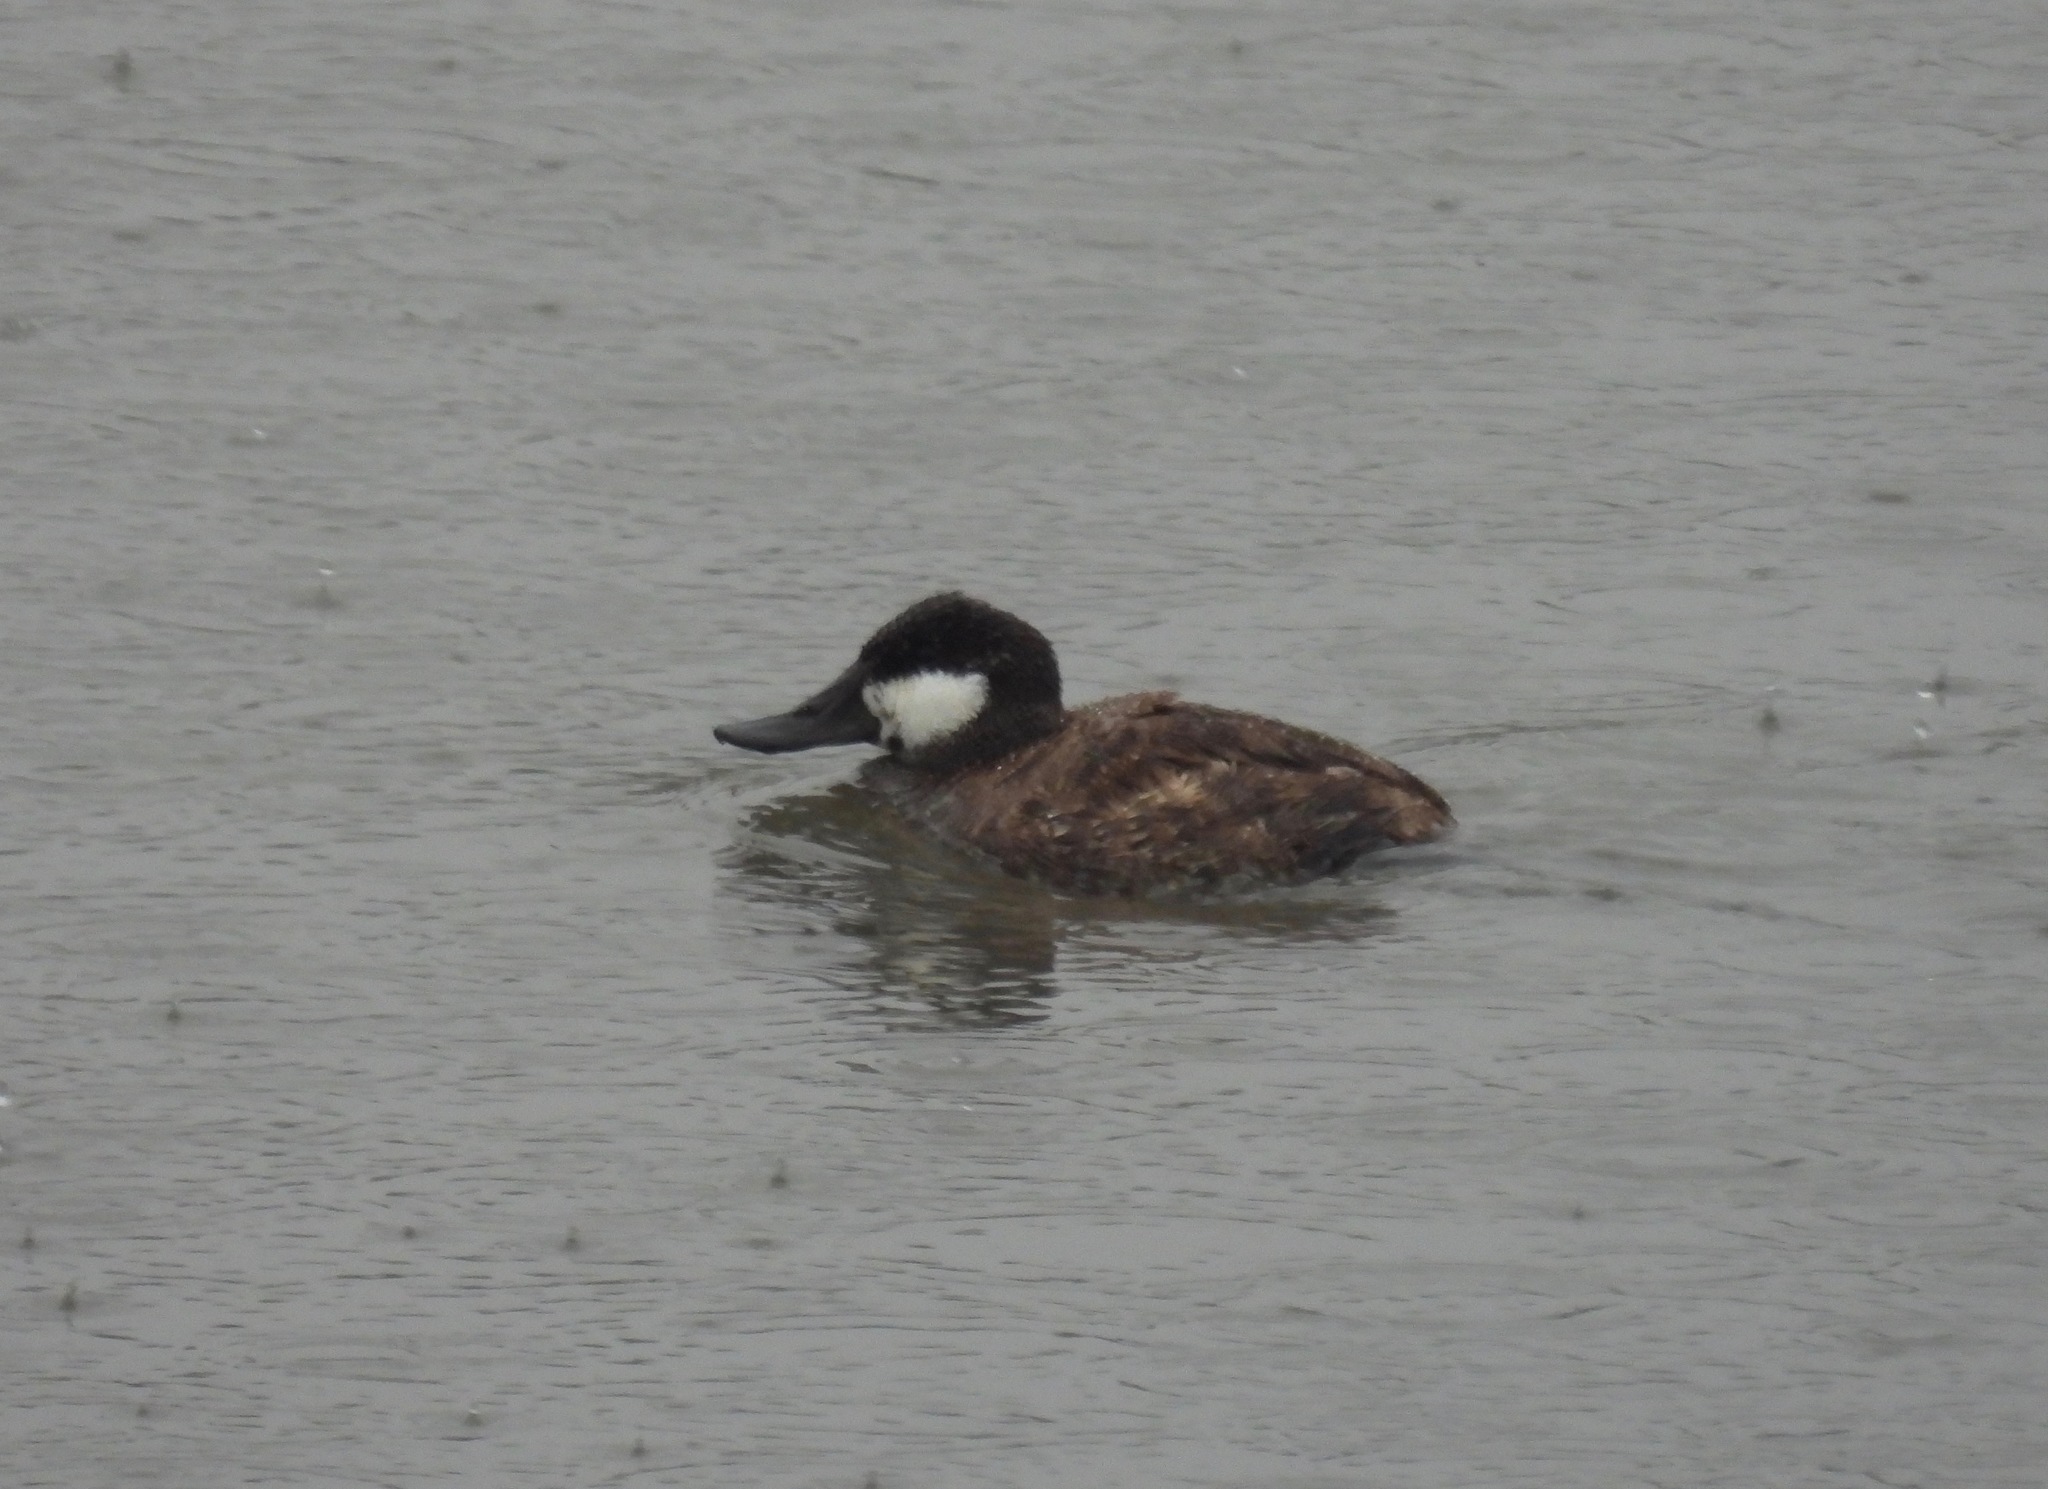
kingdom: Animalia
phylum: Chordata
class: Aves
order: Anseriformes
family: Anatidae
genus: Oxyura
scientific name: Oxyura jamaicensis
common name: Ruddy duck
